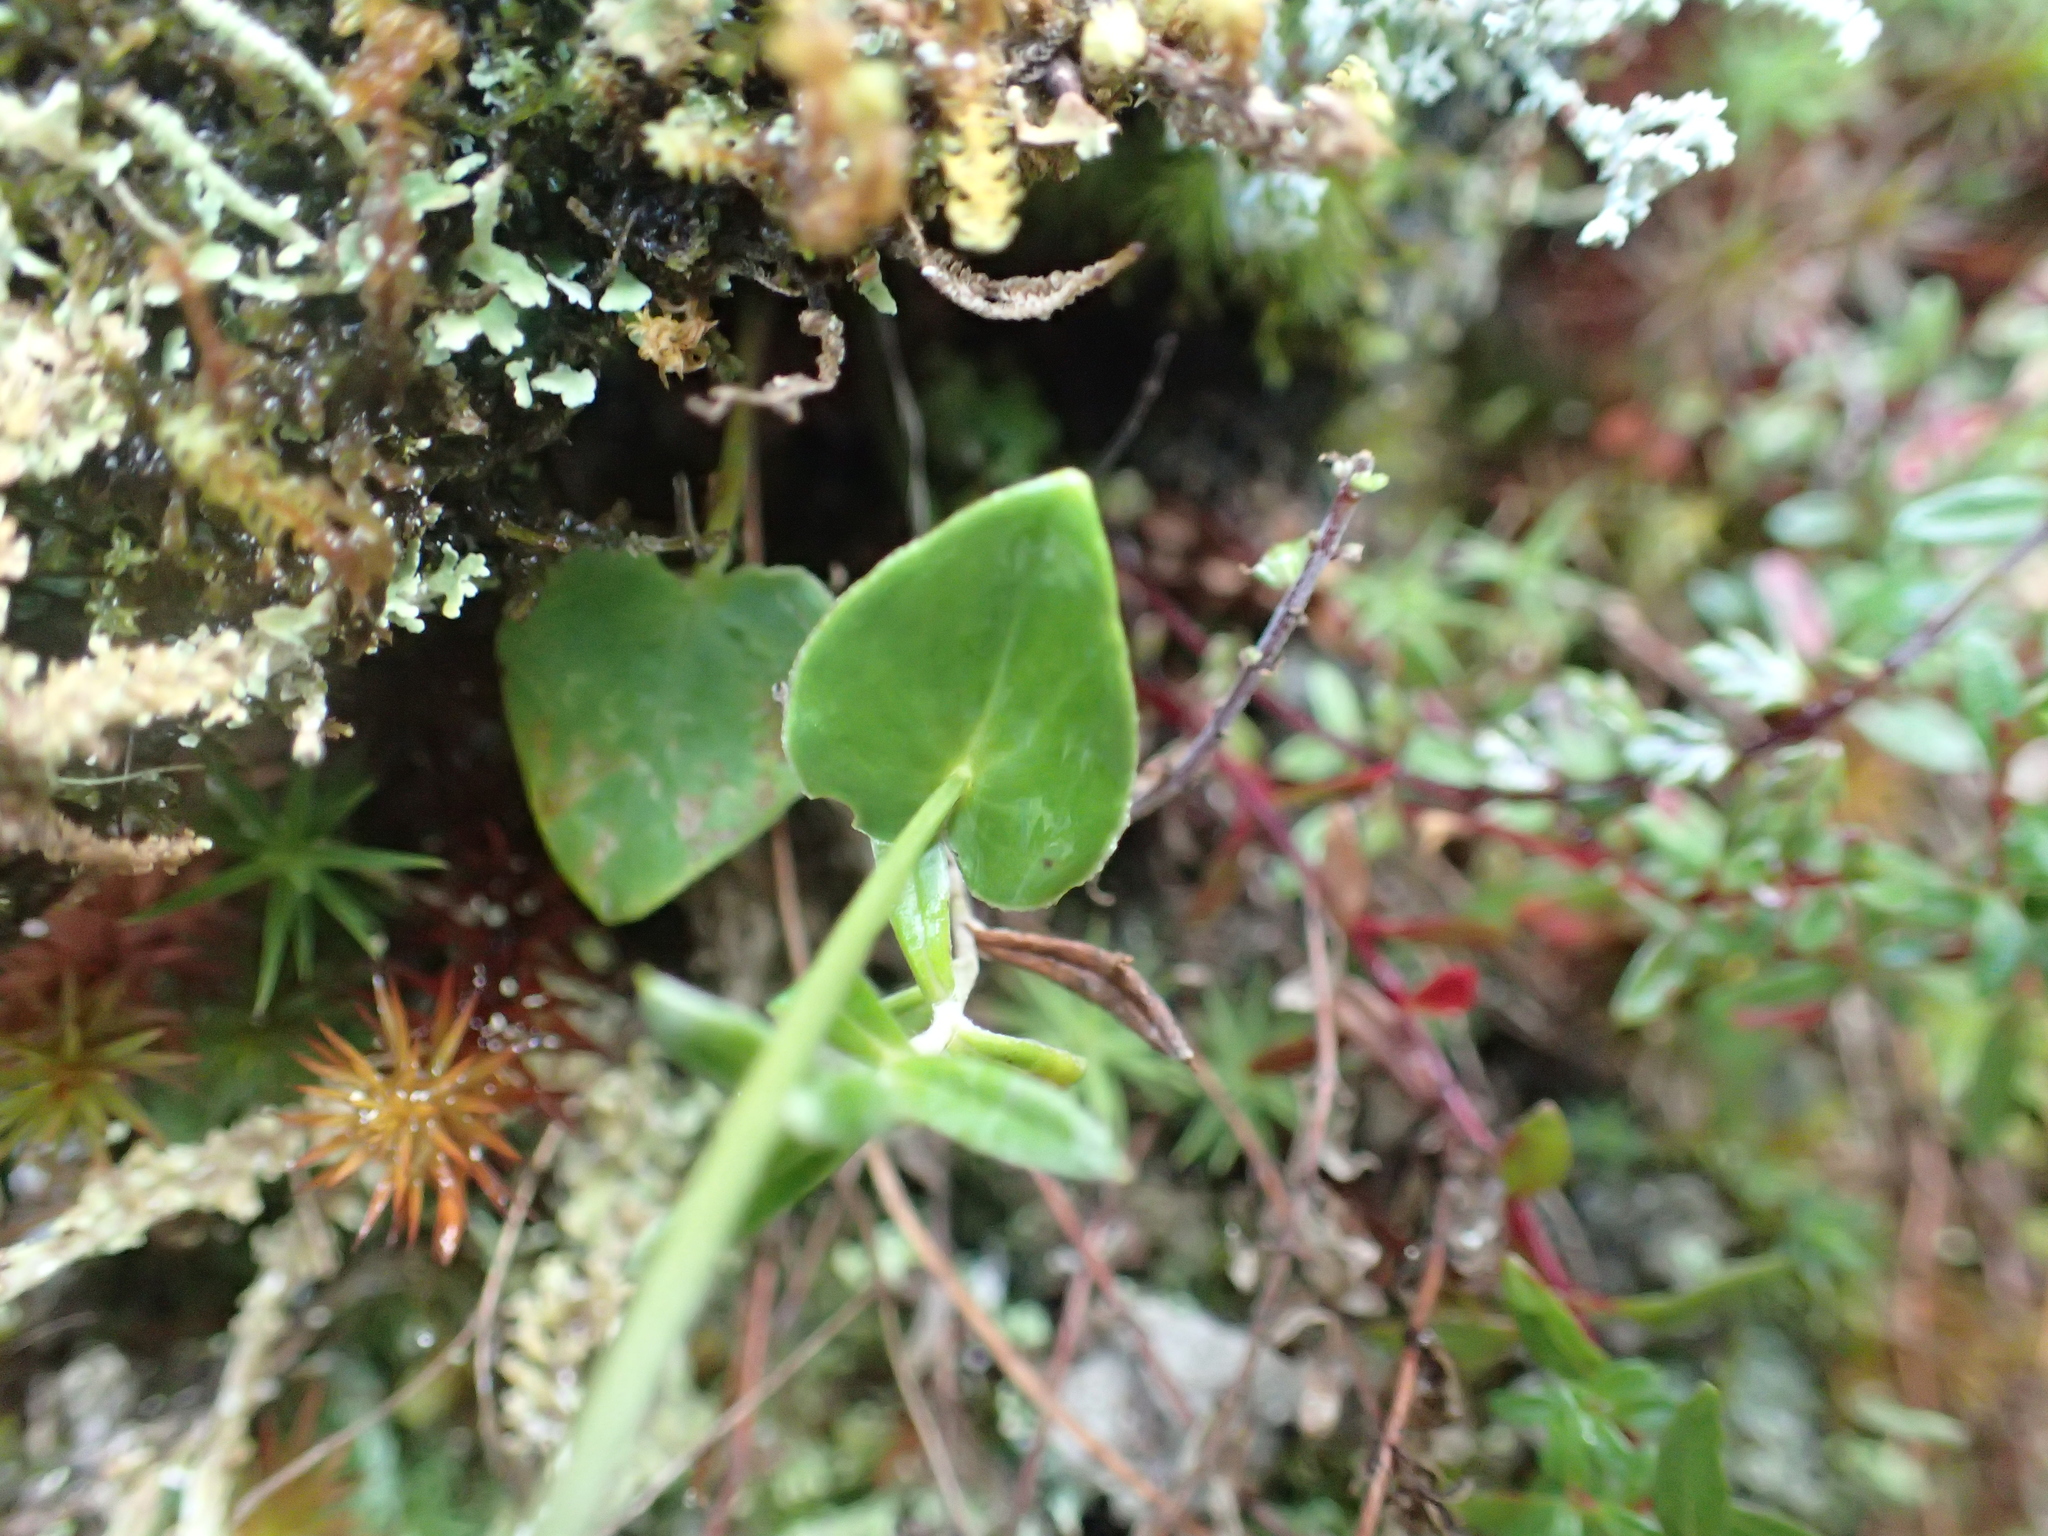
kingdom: Plantae
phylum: Tracheophyta
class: Magnoliopsida
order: Celastrales
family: Parnassiaceae
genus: Parnassia
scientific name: Parnassia palustris
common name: Grass-of-parnassus
